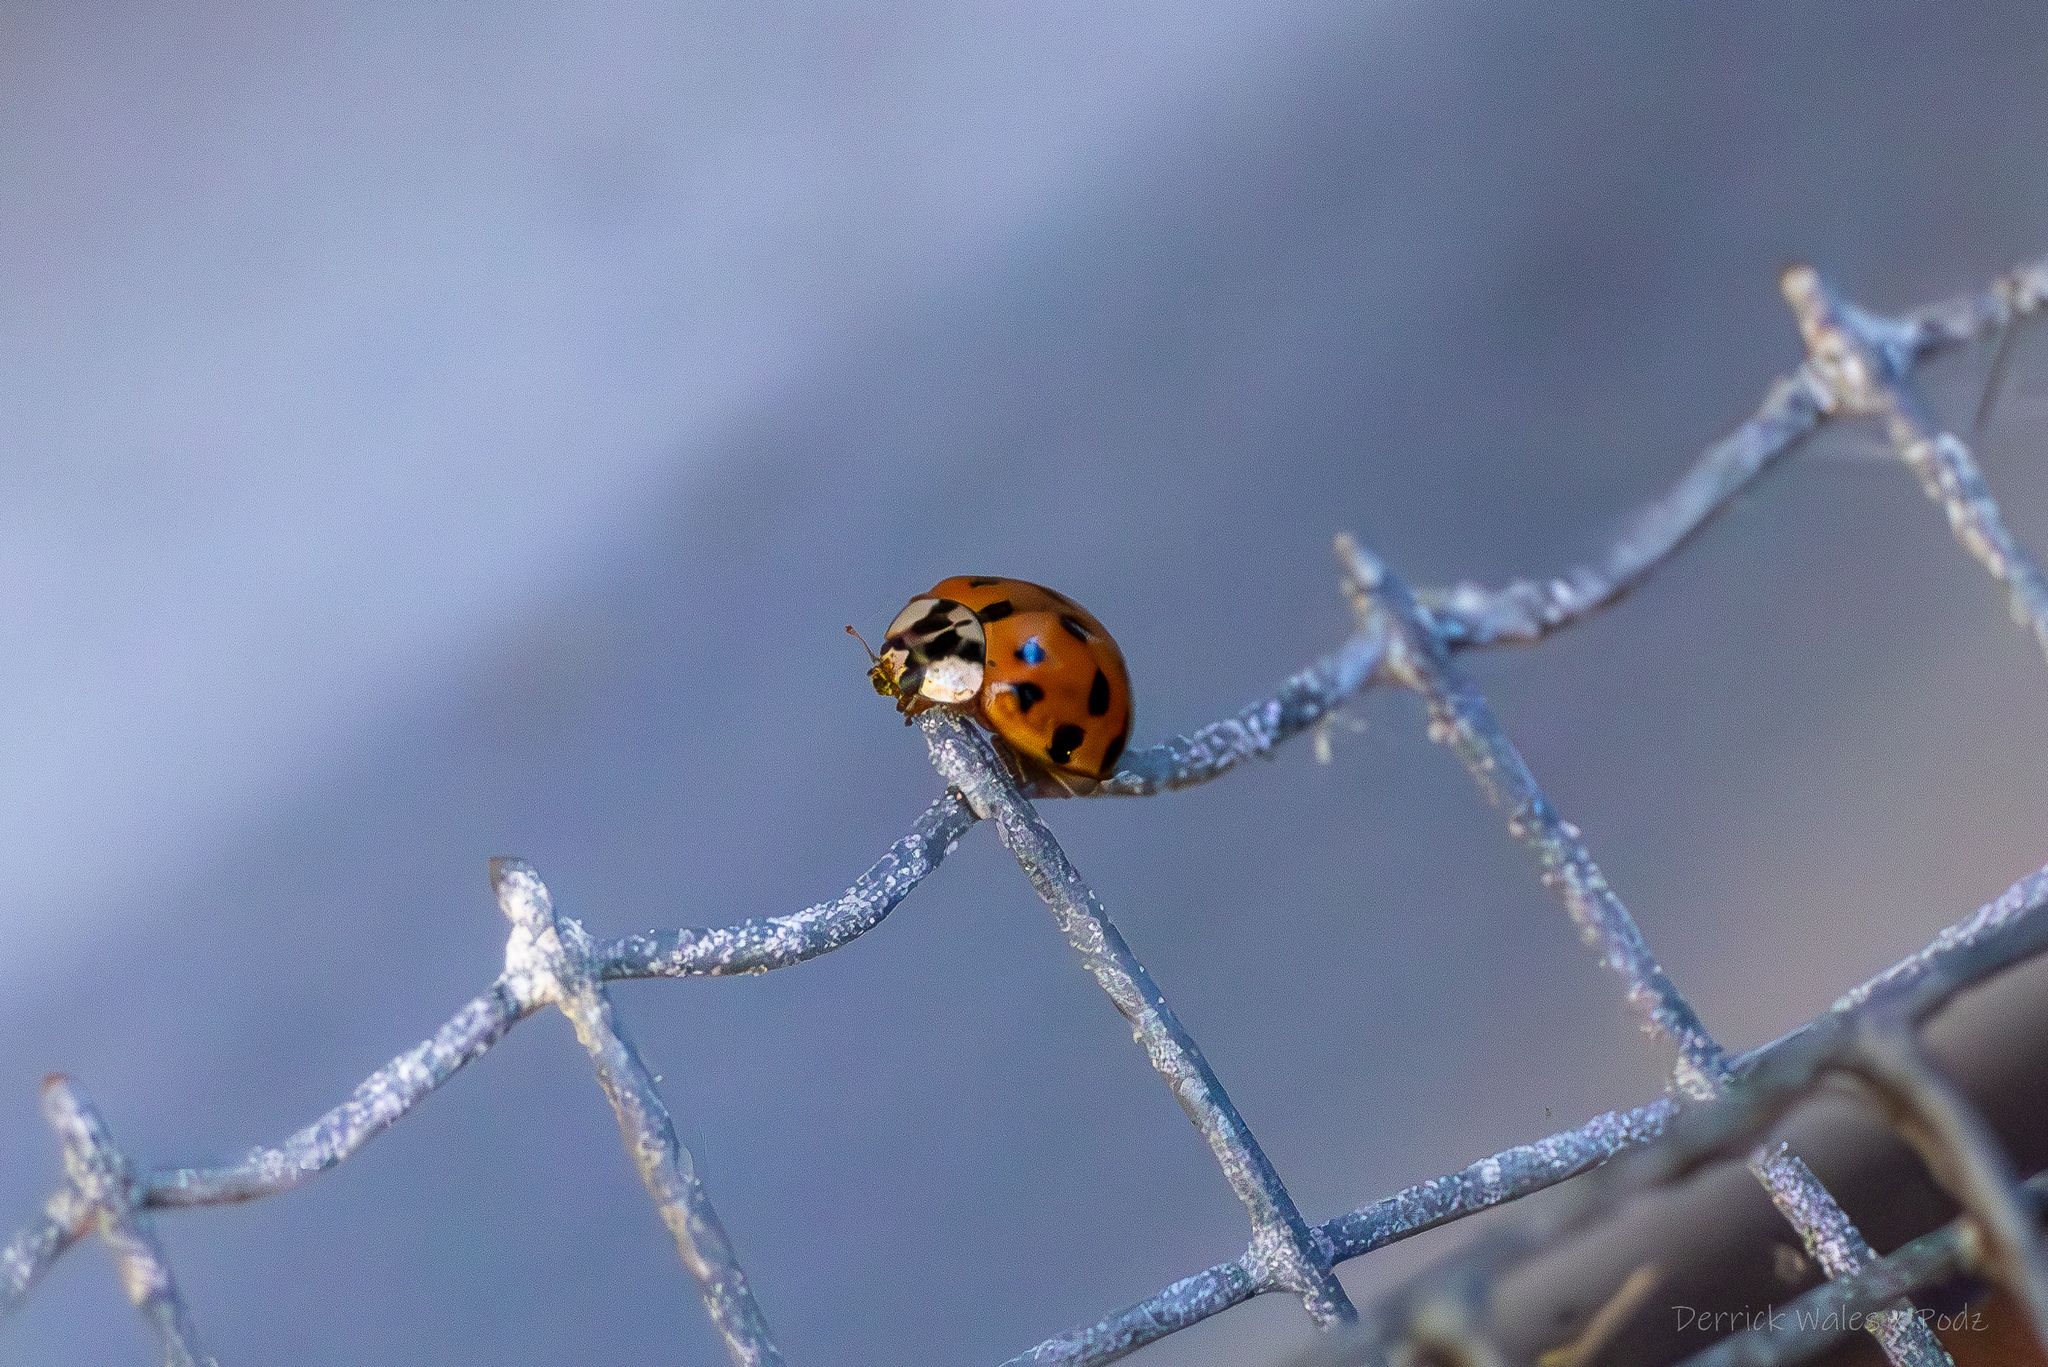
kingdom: Animalia
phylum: Arthropoda
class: Insecta
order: Coleoptera
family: Coccinellidae
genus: Harmonia
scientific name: Harmonia axyridis
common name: Harlequin ladybird
